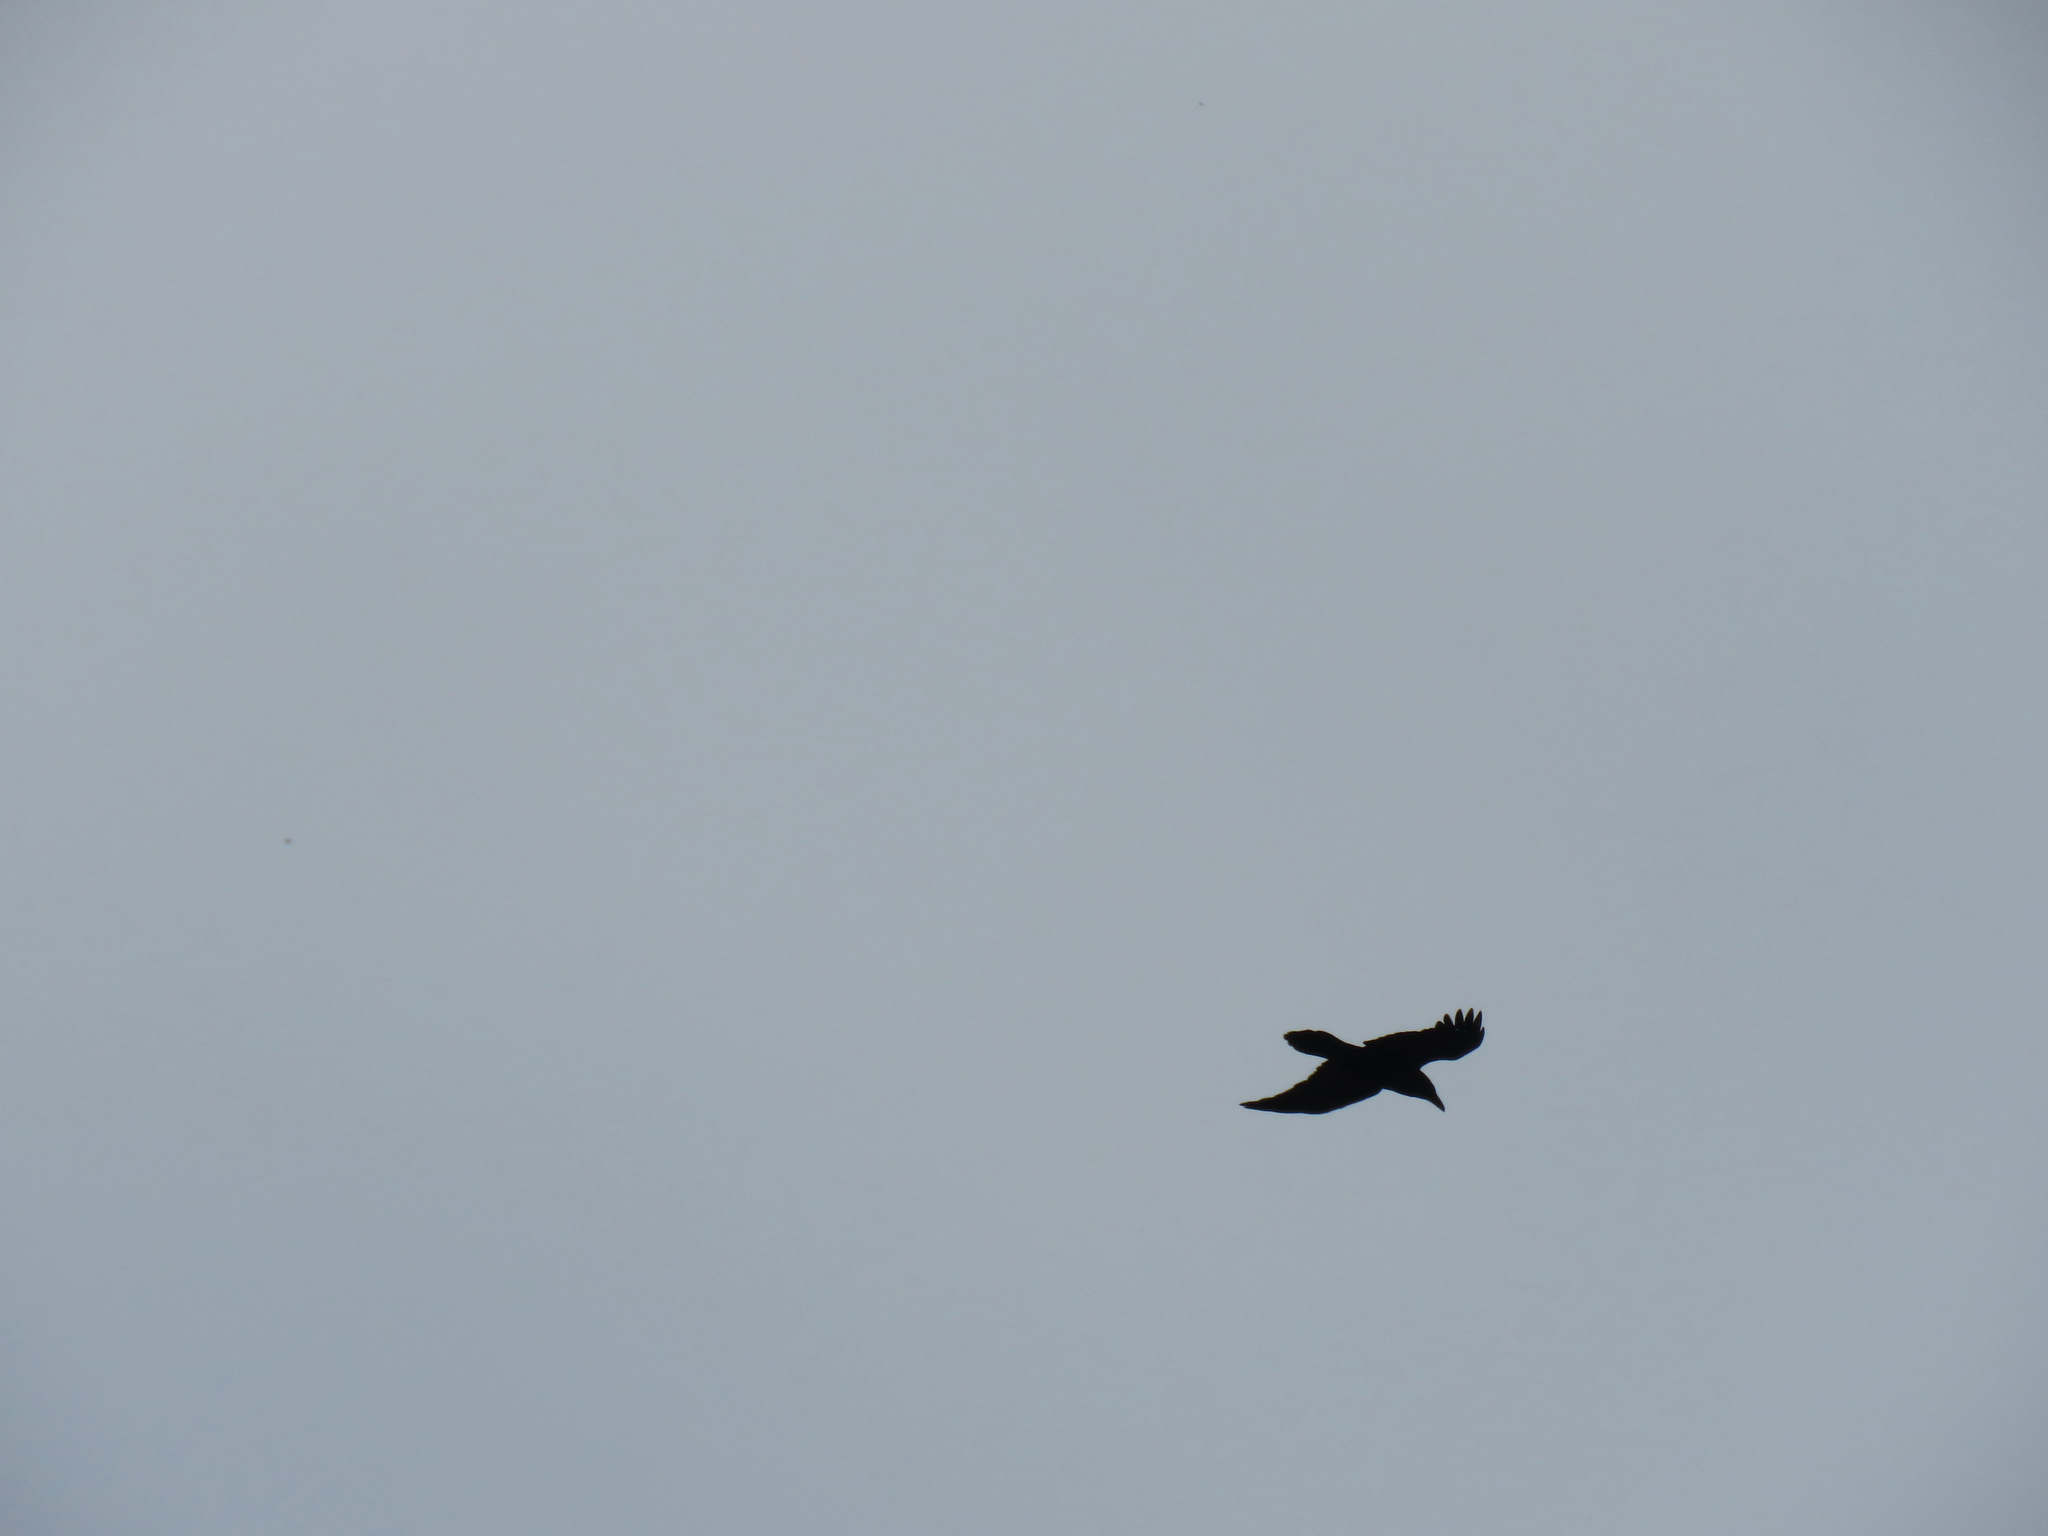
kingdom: Animalia
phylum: Chordata
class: Aves
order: Passeriformes
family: Corvidae
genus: Corvus
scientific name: Corvus corax
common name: Common raven
